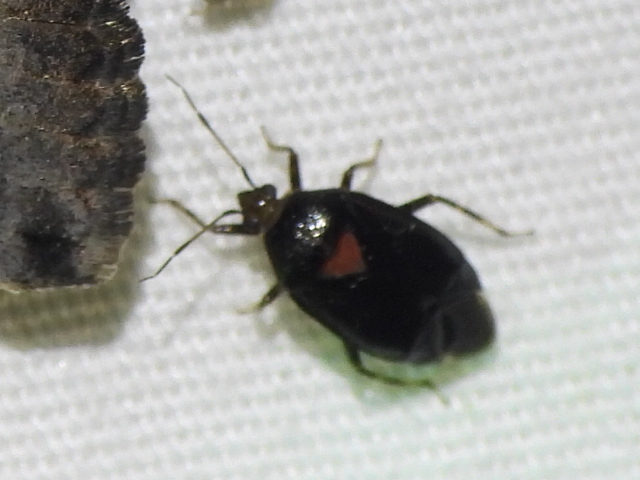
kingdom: Animalia
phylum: Arthropoda
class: Insecta
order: Hemiptera
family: Miridae
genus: Deraeocoris
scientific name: Deraeocoris sayi
